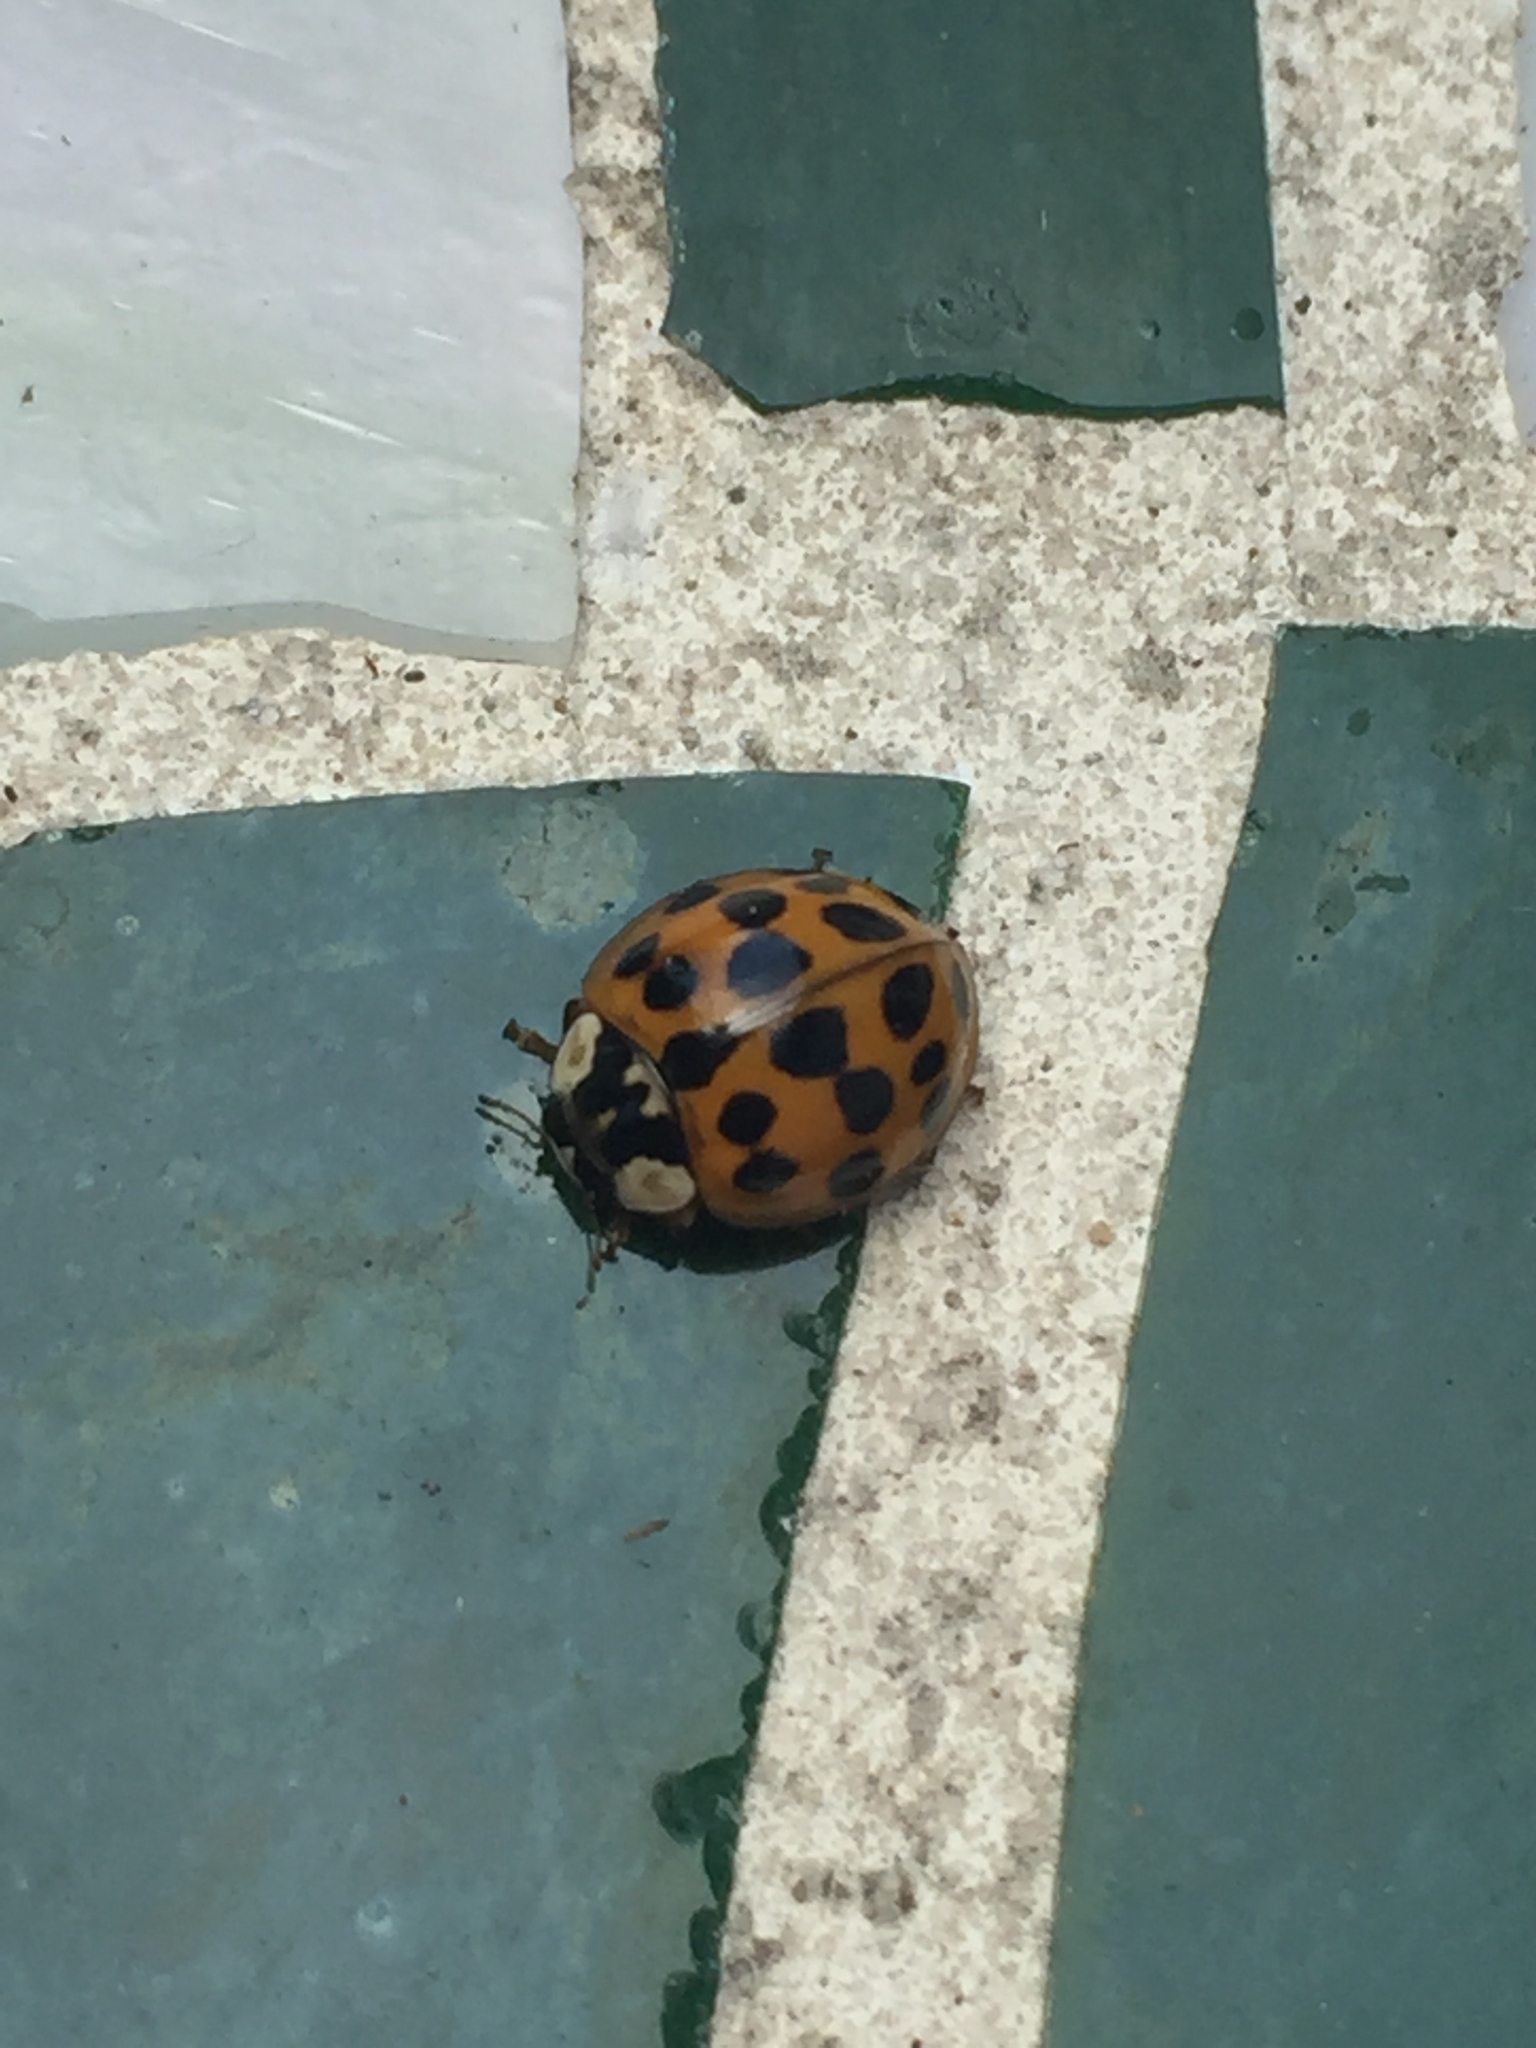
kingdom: Animalia
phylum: Arthropoda
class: Insecta
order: Coleoptera
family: Coccinellidae
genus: Harmonia
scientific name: Harmonia axyridis
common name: Harlequin ladybird
